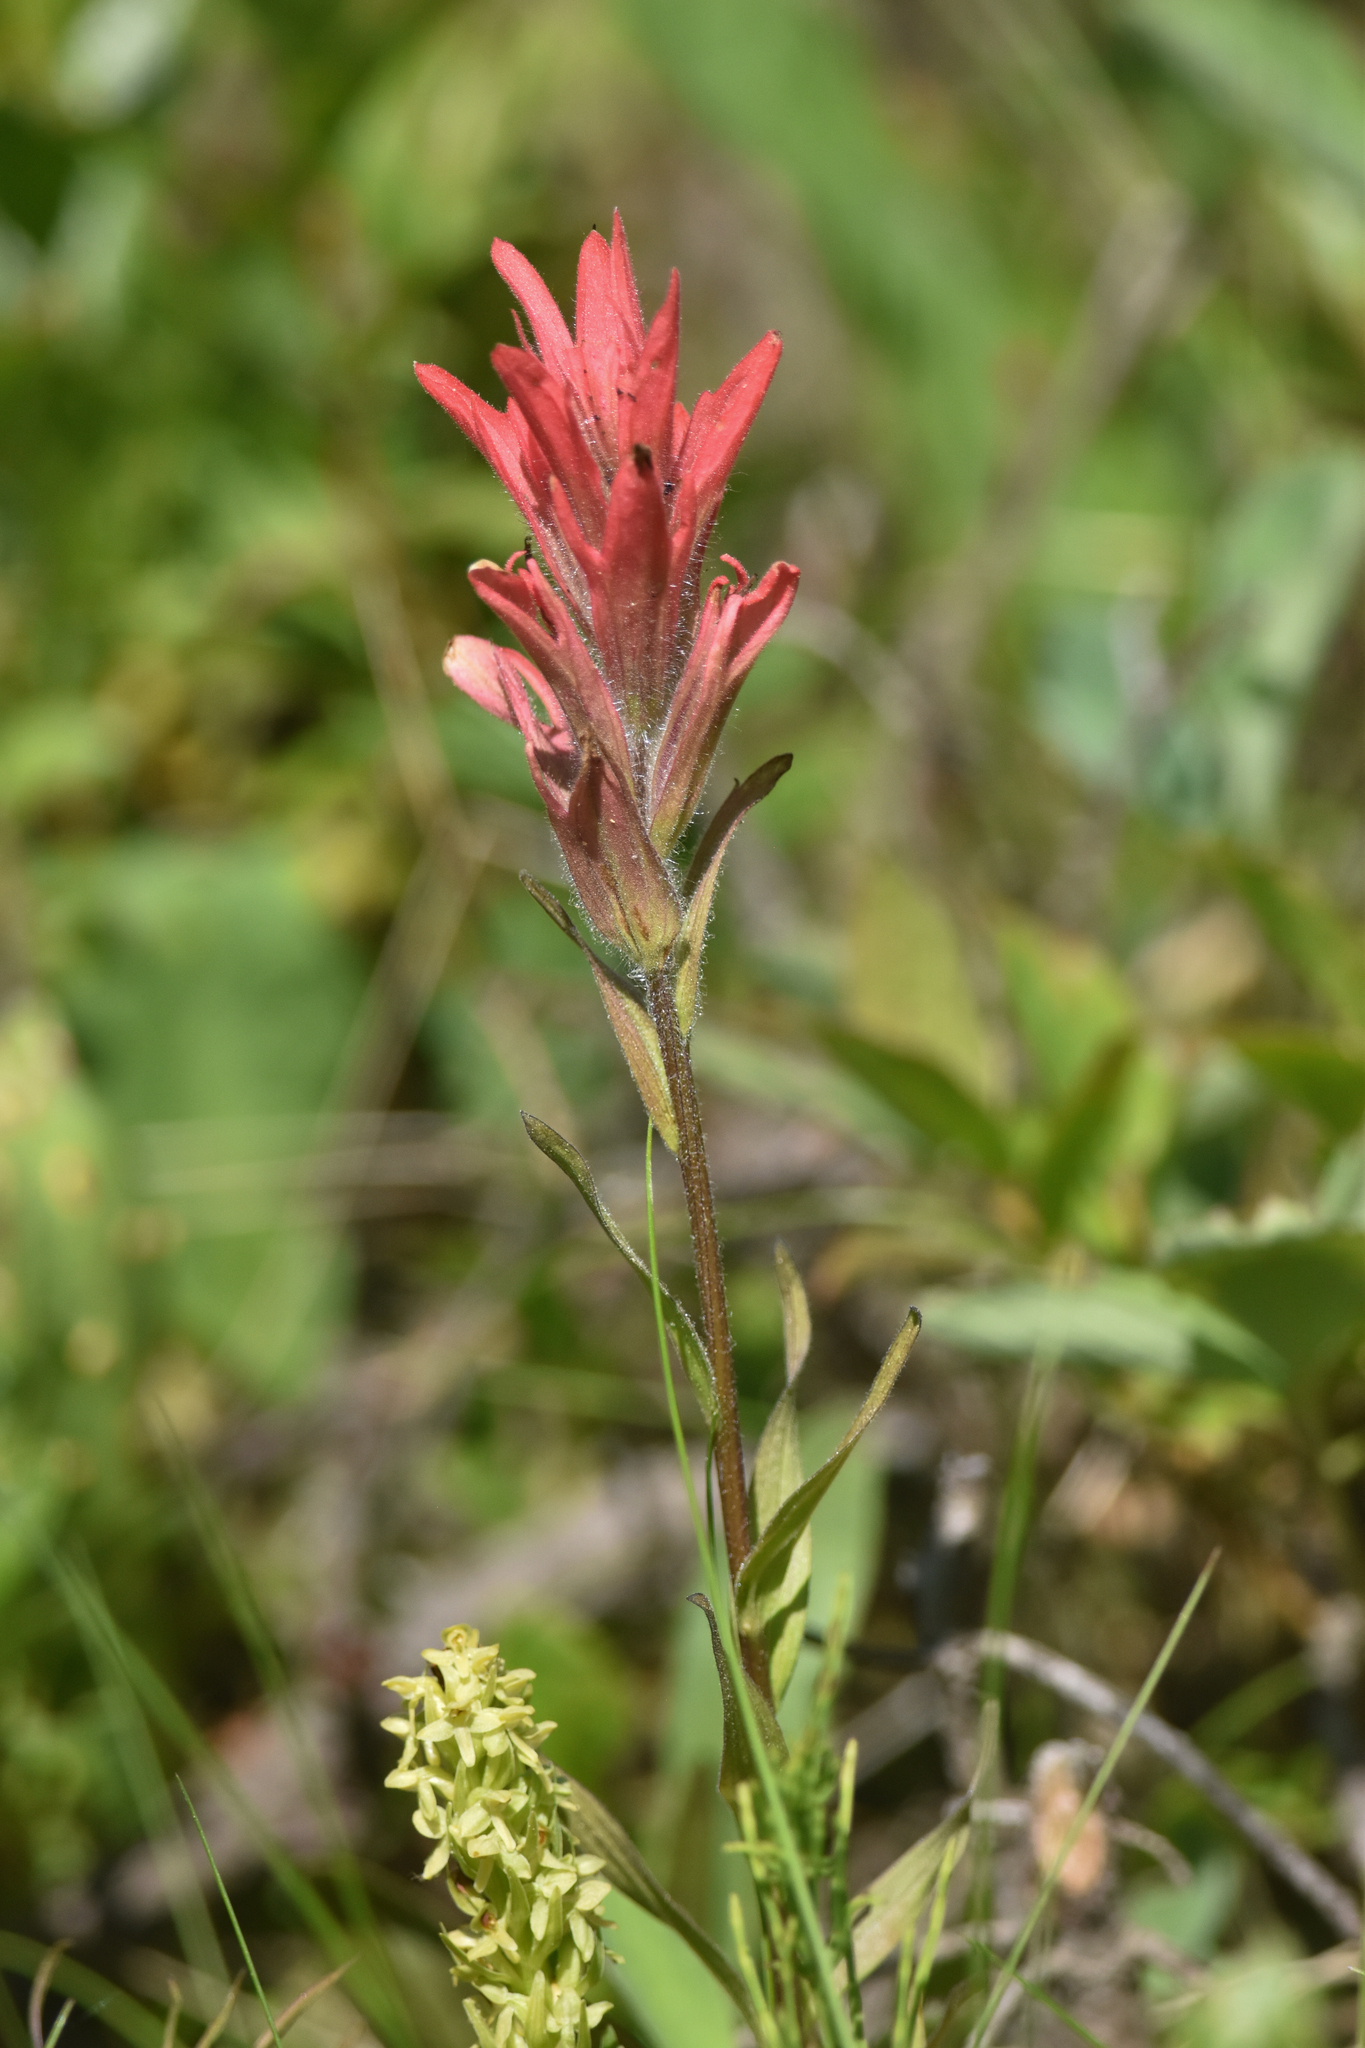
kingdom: Plantae
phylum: Tracheophyta
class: Magnoliopsida
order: Lamiales
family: Orobanchaceae
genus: Castilleja
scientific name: Castilleja miniata
